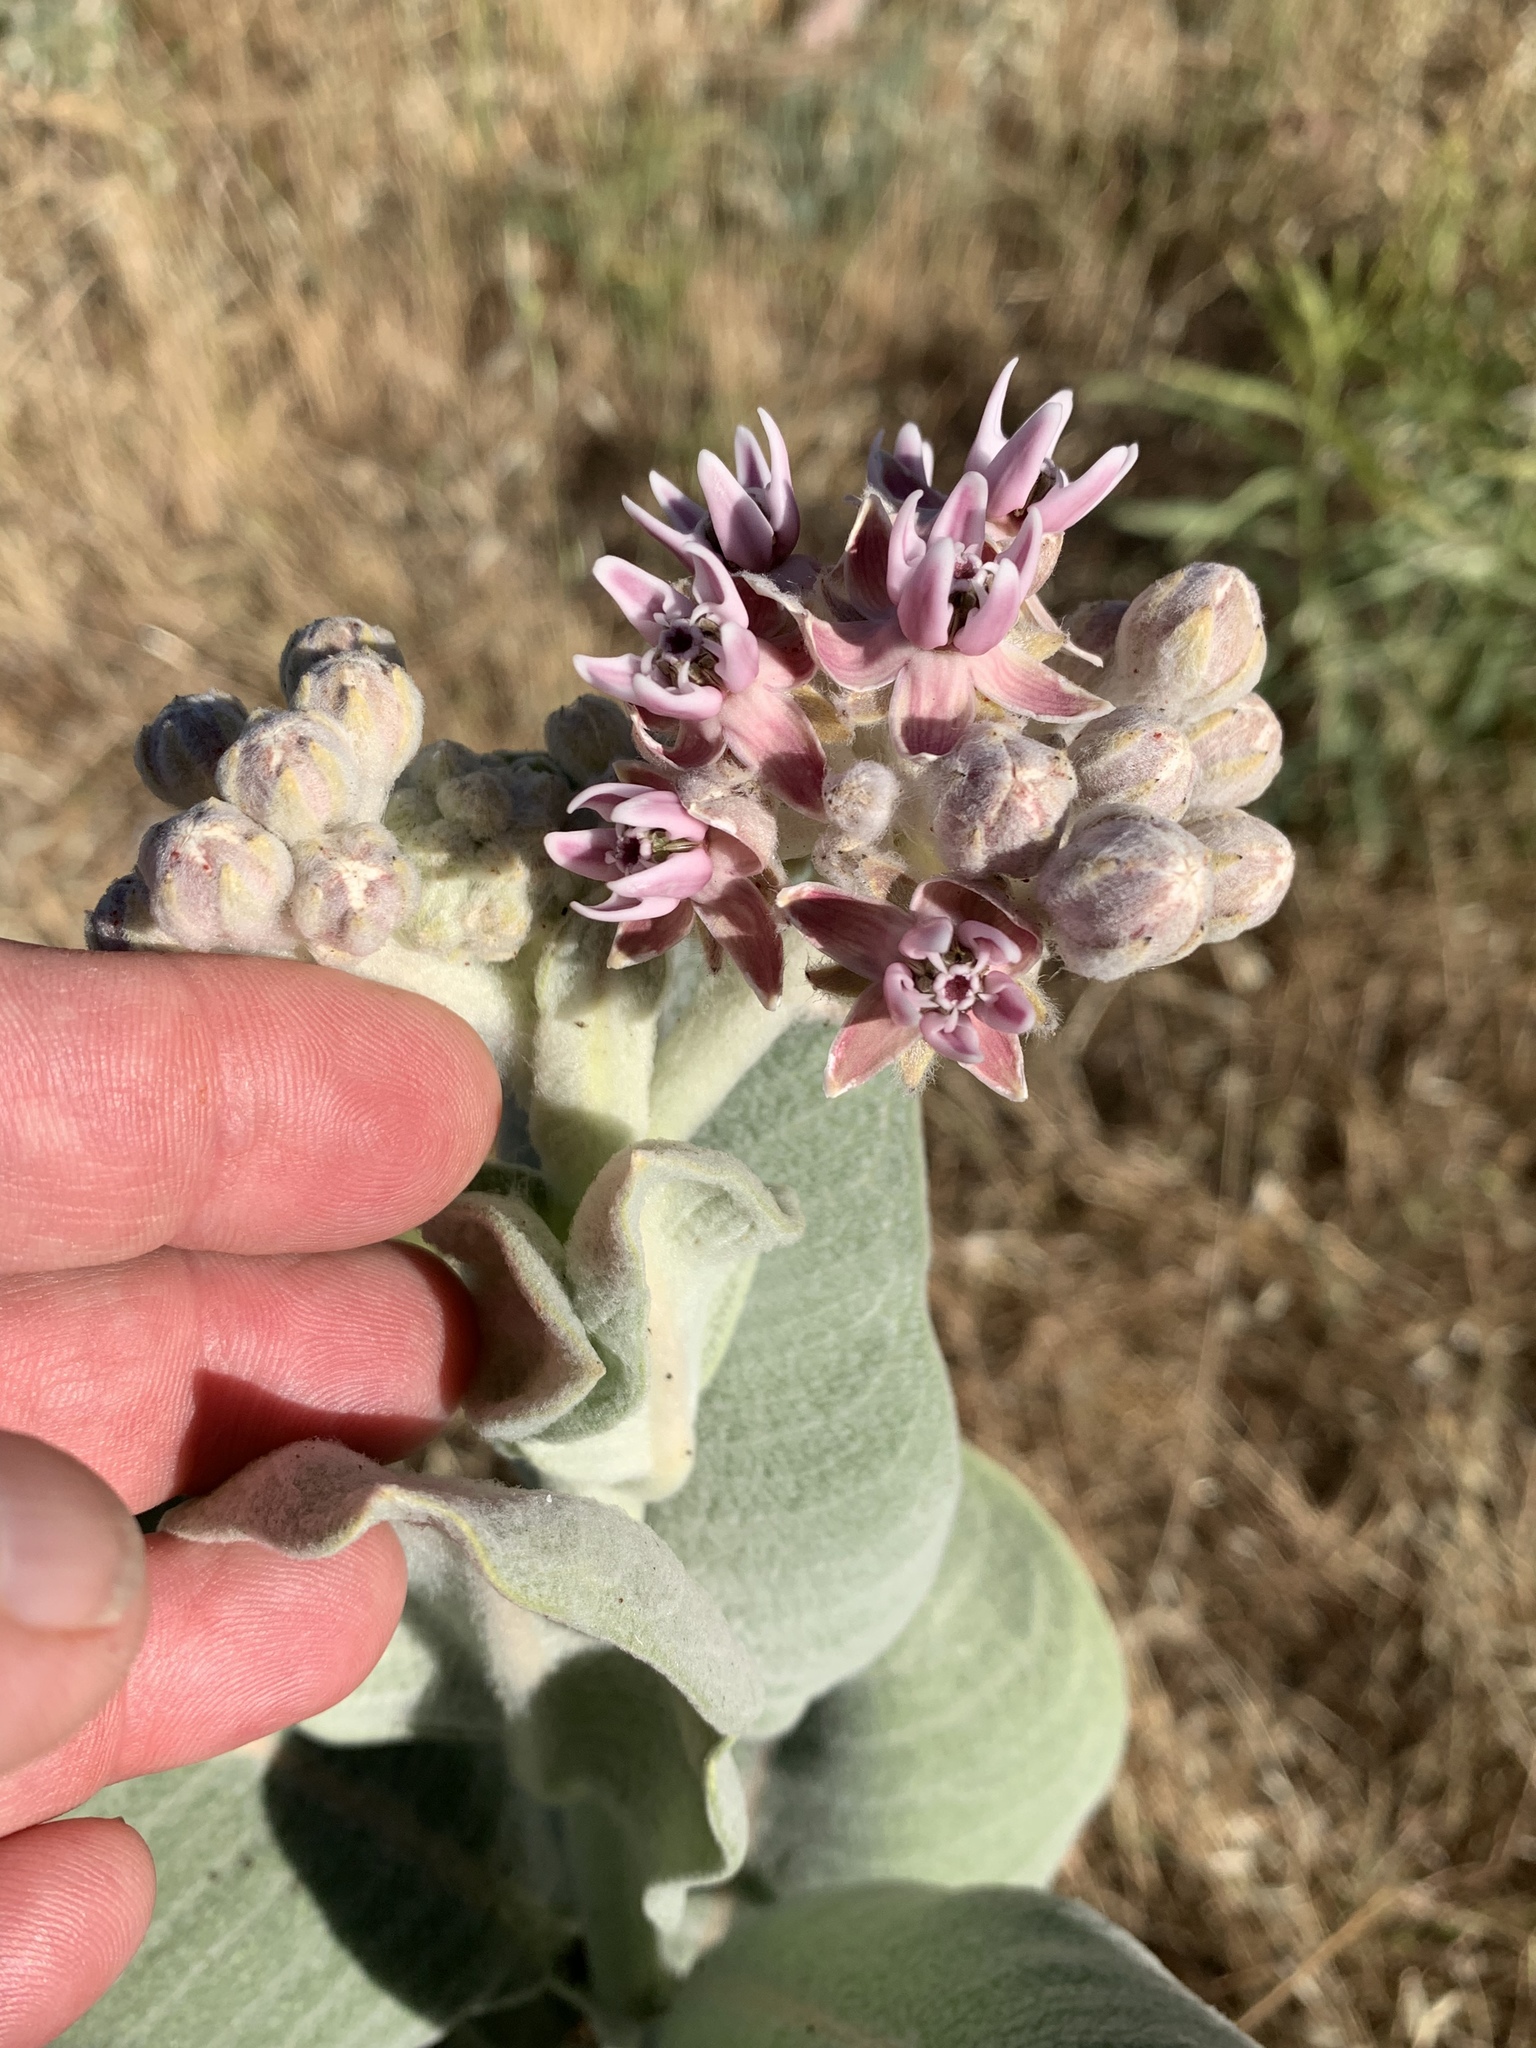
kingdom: Plantae
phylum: Tracheophyta
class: Magnoliopsida
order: Gentianales
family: Apocynaceae
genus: Asclepias
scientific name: Asclepias speciosa
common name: Showy milkweed
